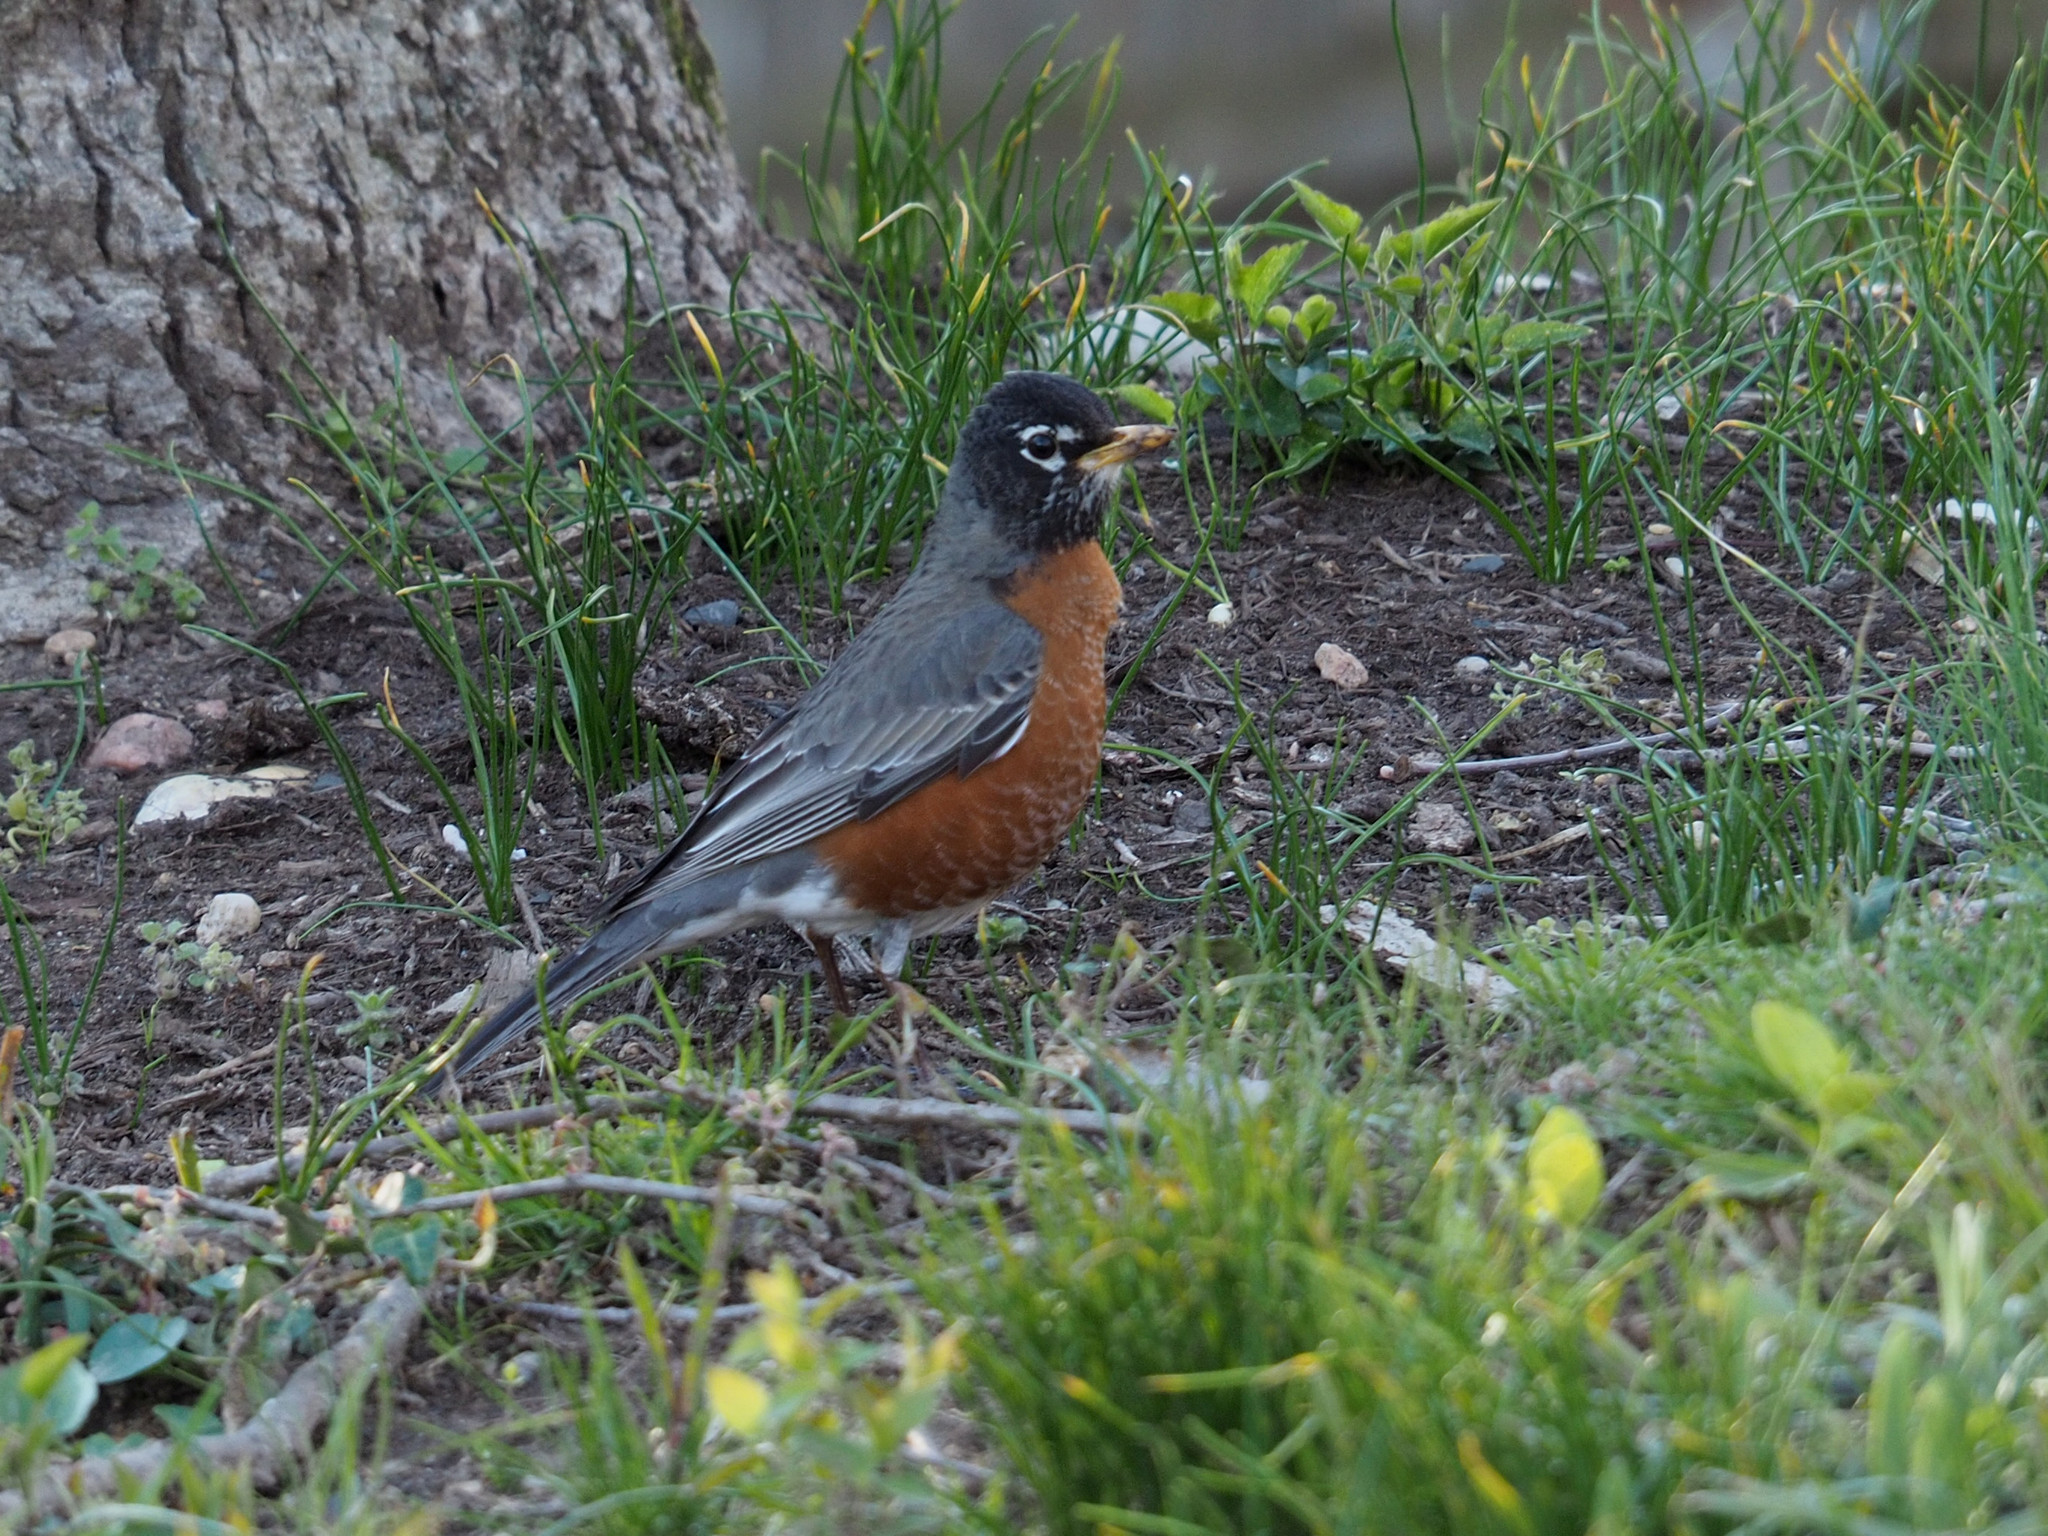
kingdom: Animalia
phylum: Chordata
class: Aves
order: Passeriformes
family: Turdidae
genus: Turdus
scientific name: Turdus migratorius
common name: American robin
